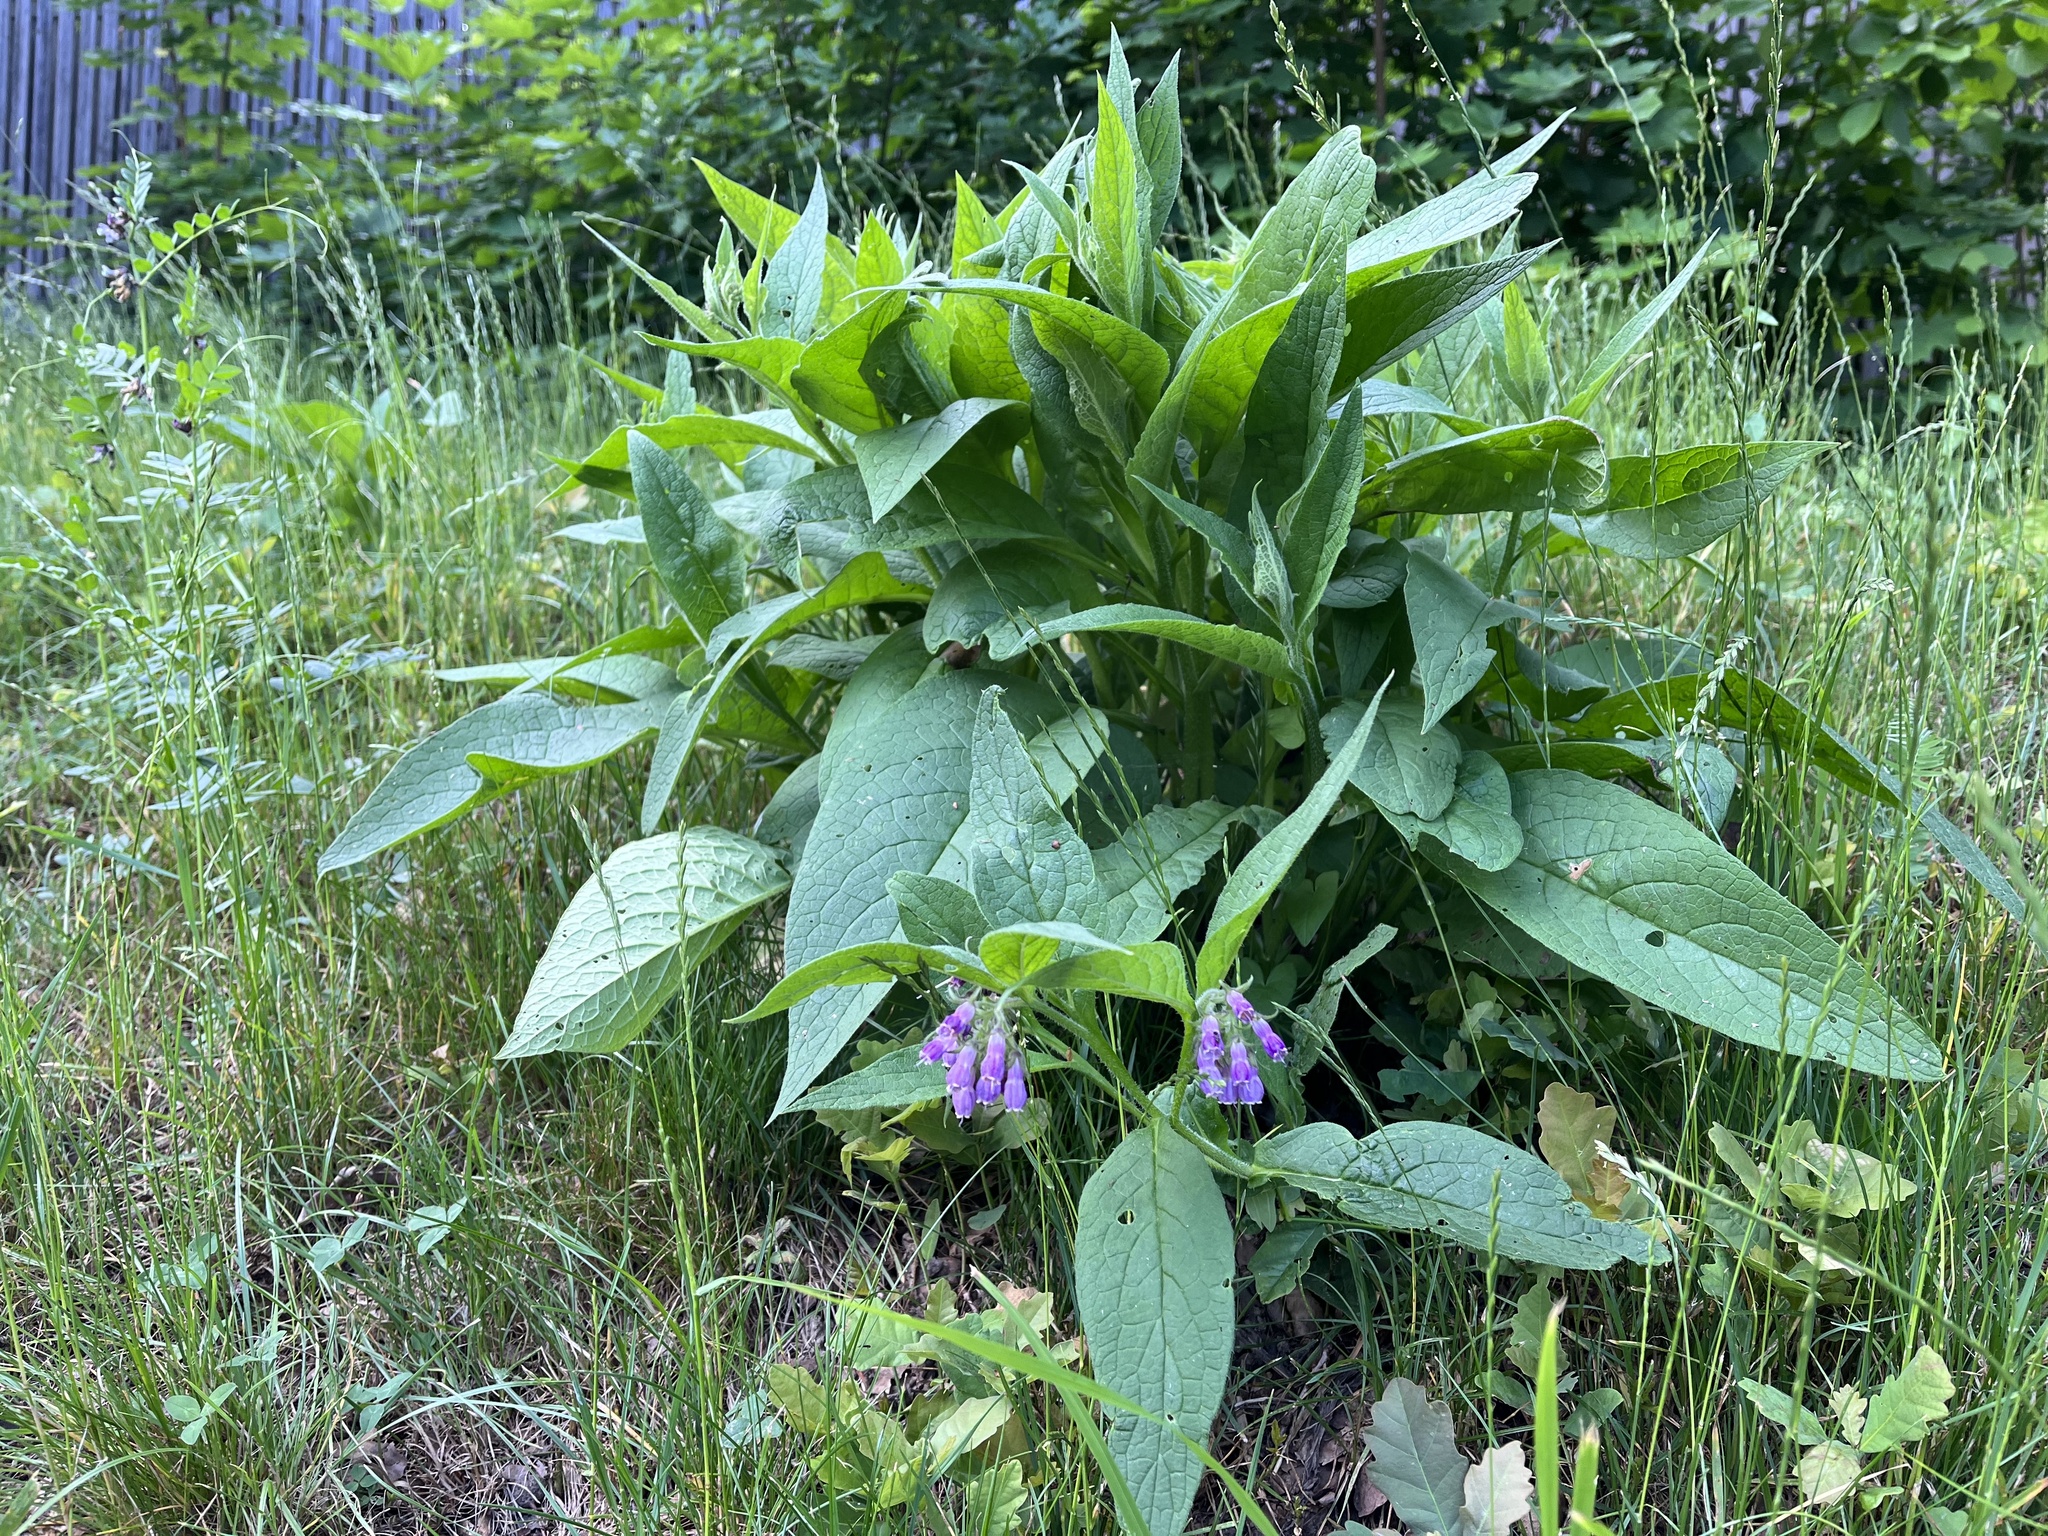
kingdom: Plantae
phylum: Tracheophyta
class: Magnoliopsida
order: Boraginales
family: Boraginaceae
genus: Symphytum
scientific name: Symphytum officinale
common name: Common comfrey
